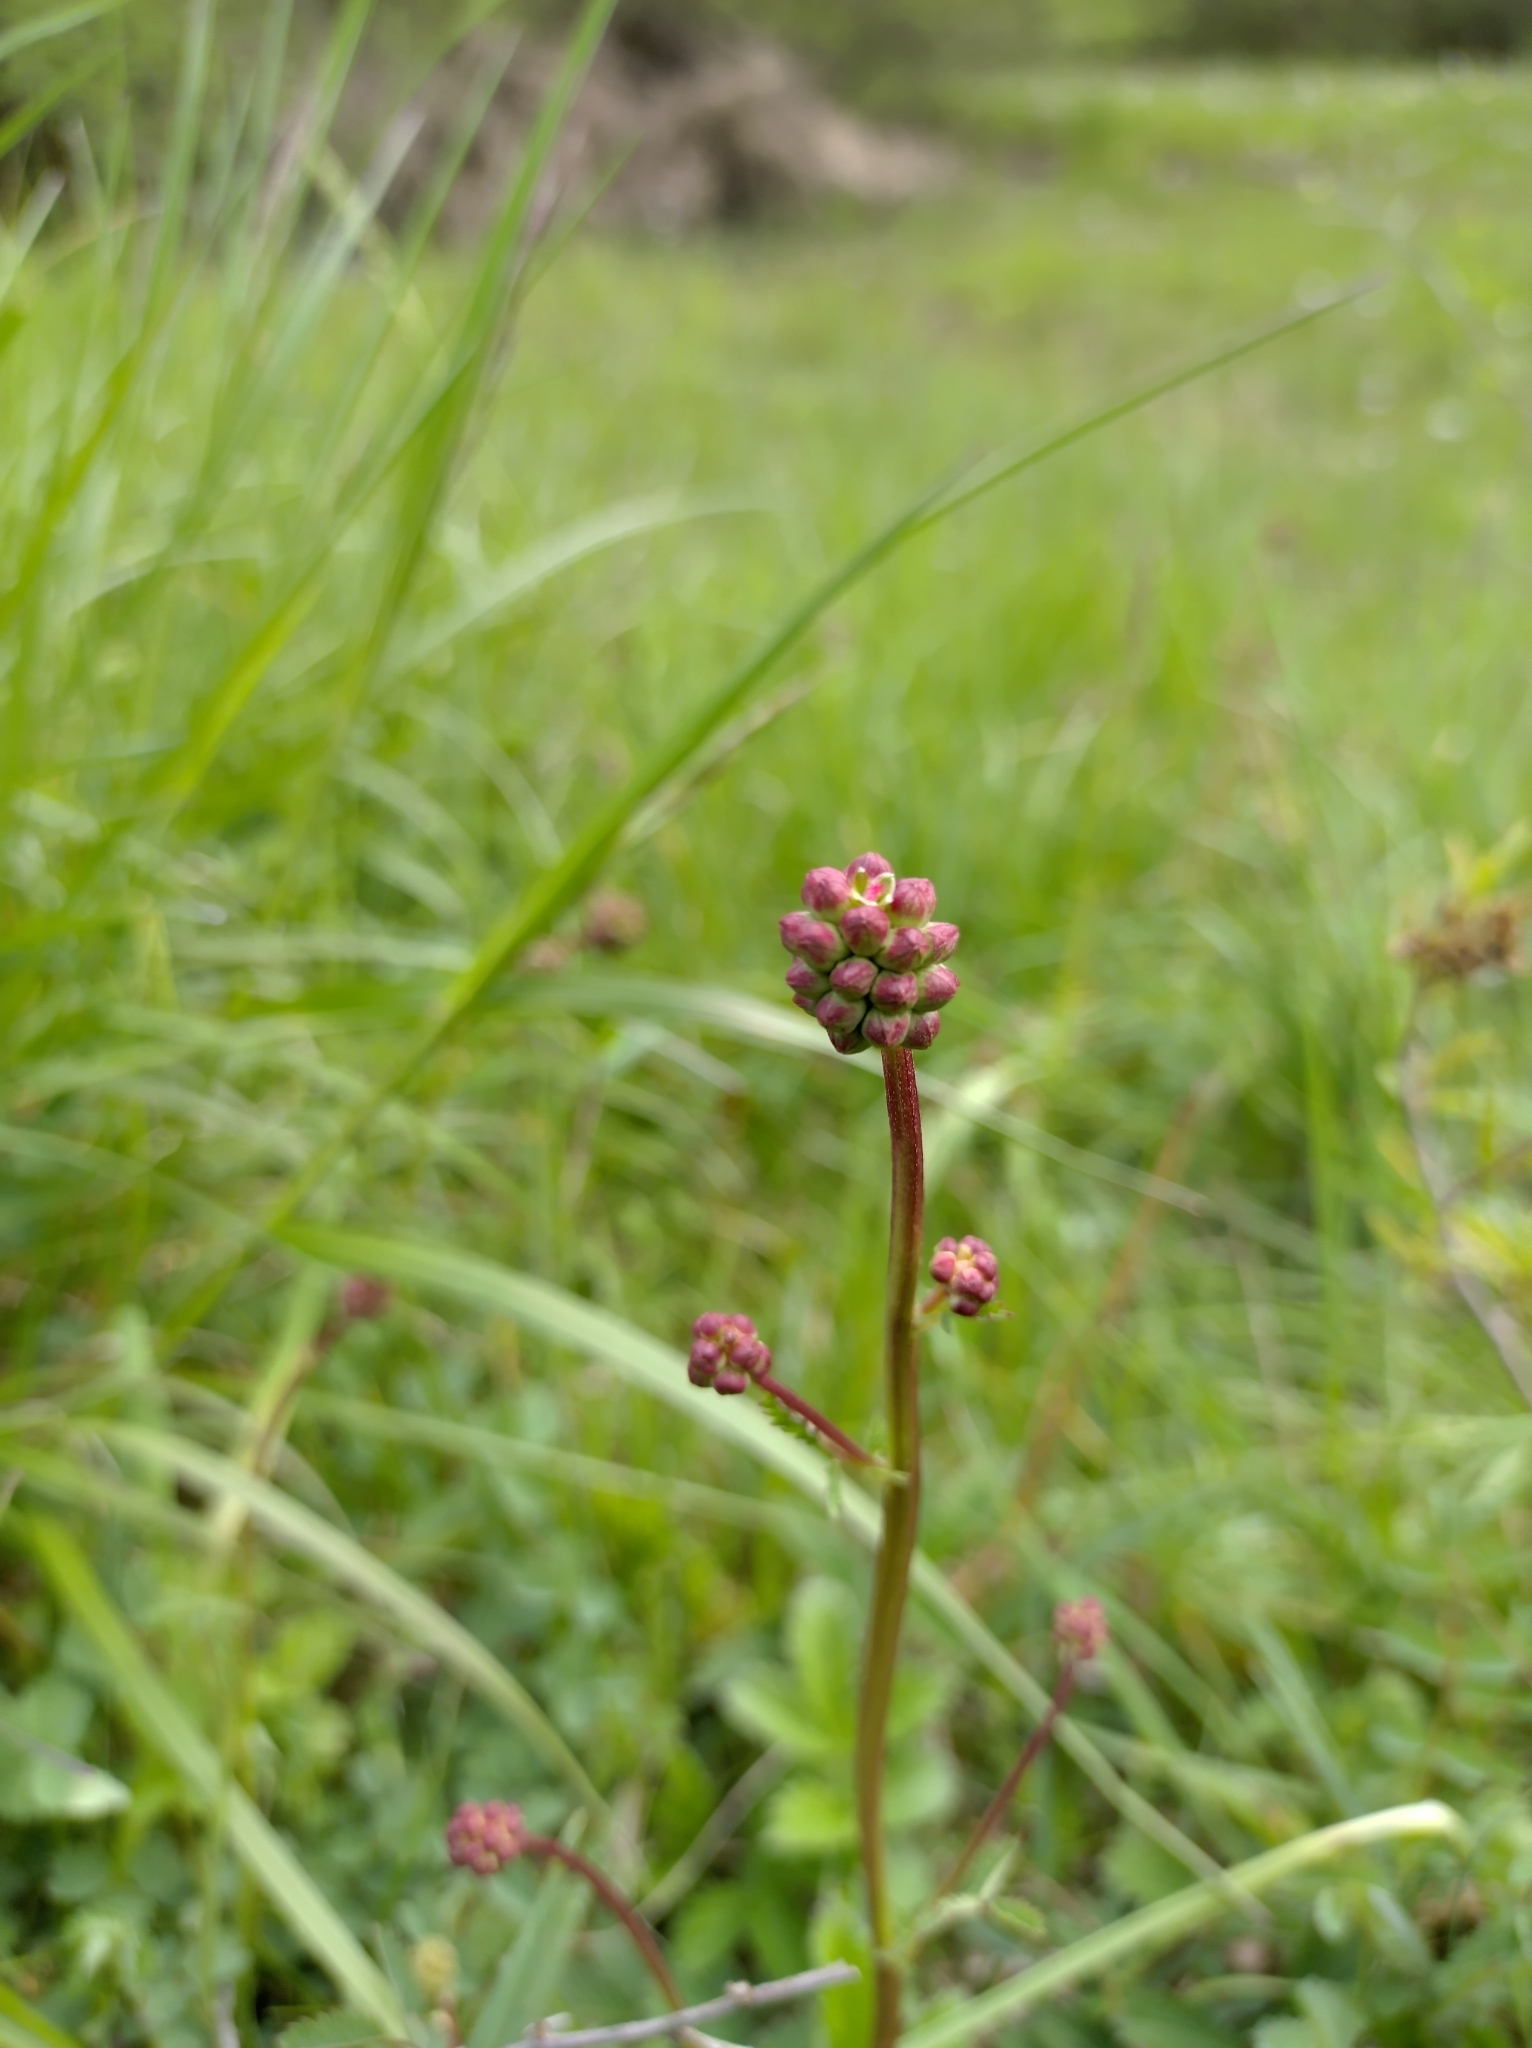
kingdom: Plantae
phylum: Tracheophyta
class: Magnoliopsida
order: Rosales
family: Rosaceae
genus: Poterium
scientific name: Poterium sanguisorba
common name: Salad burnet
